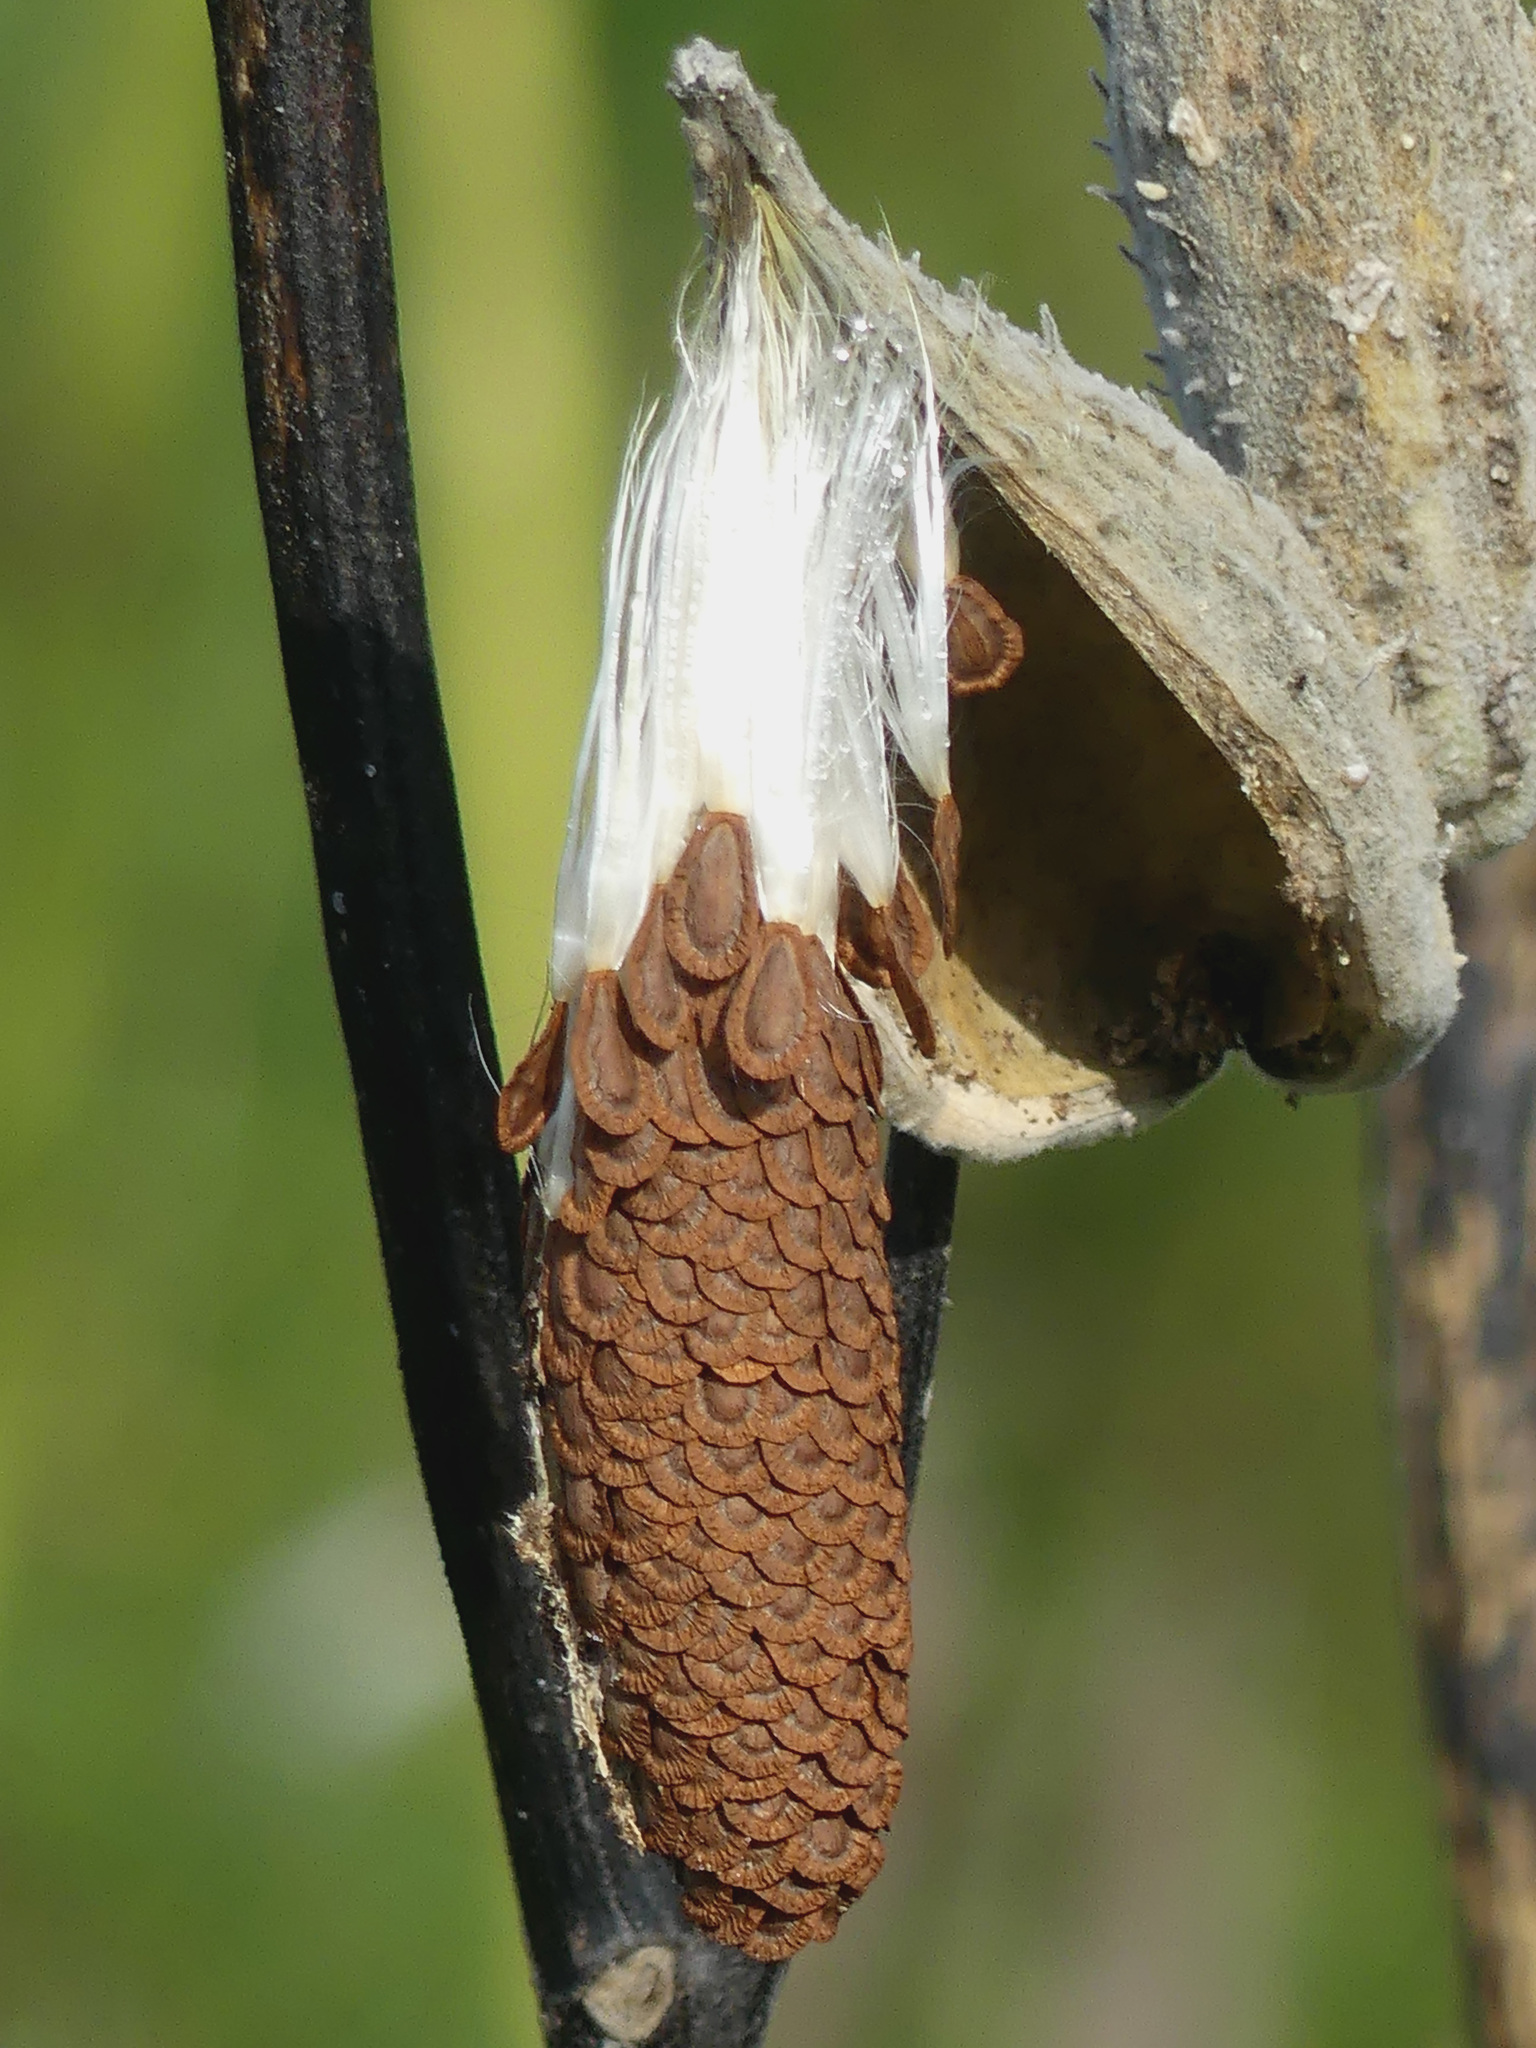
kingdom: Plantae
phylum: Tracheophyta
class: Magnoliopsida
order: Gentianales
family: Apocynaceae
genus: Asclepias
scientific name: Asclepias syriaca
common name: Common milkweed
